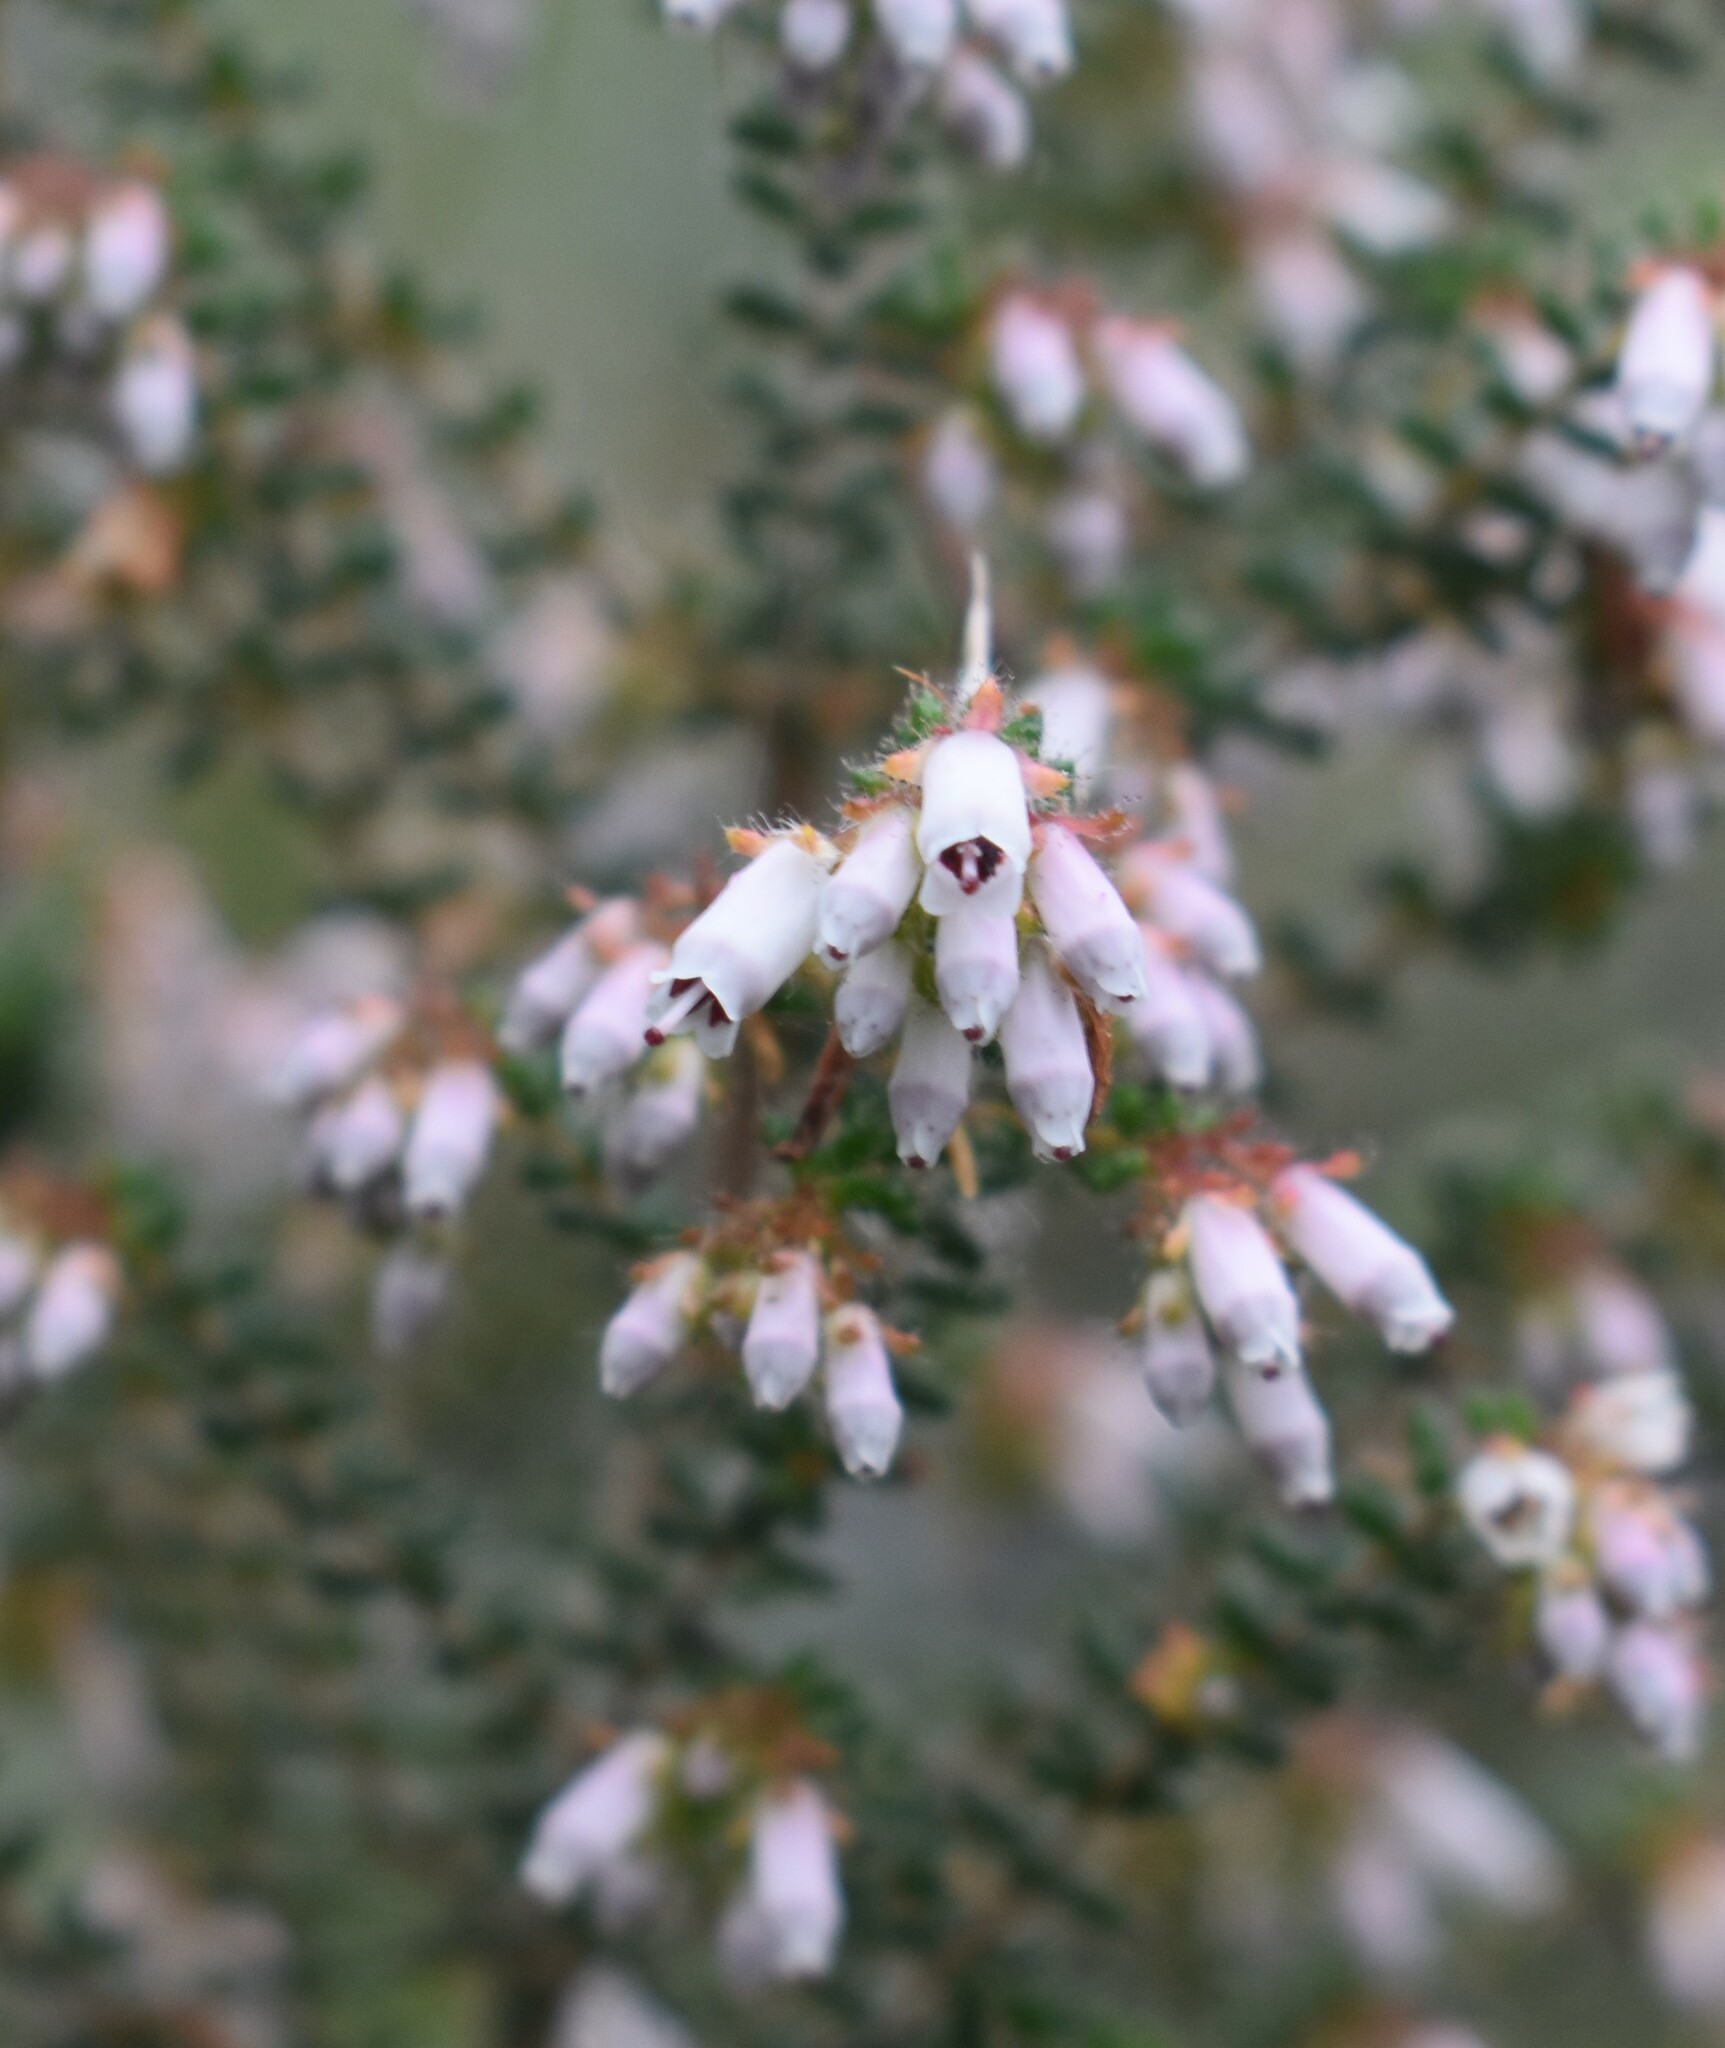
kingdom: Plantae
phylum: Tracheophyta
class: Magnoliopsida
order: Ericales
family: Ericaceae
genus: Erica
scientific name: Erica scabriuscula
